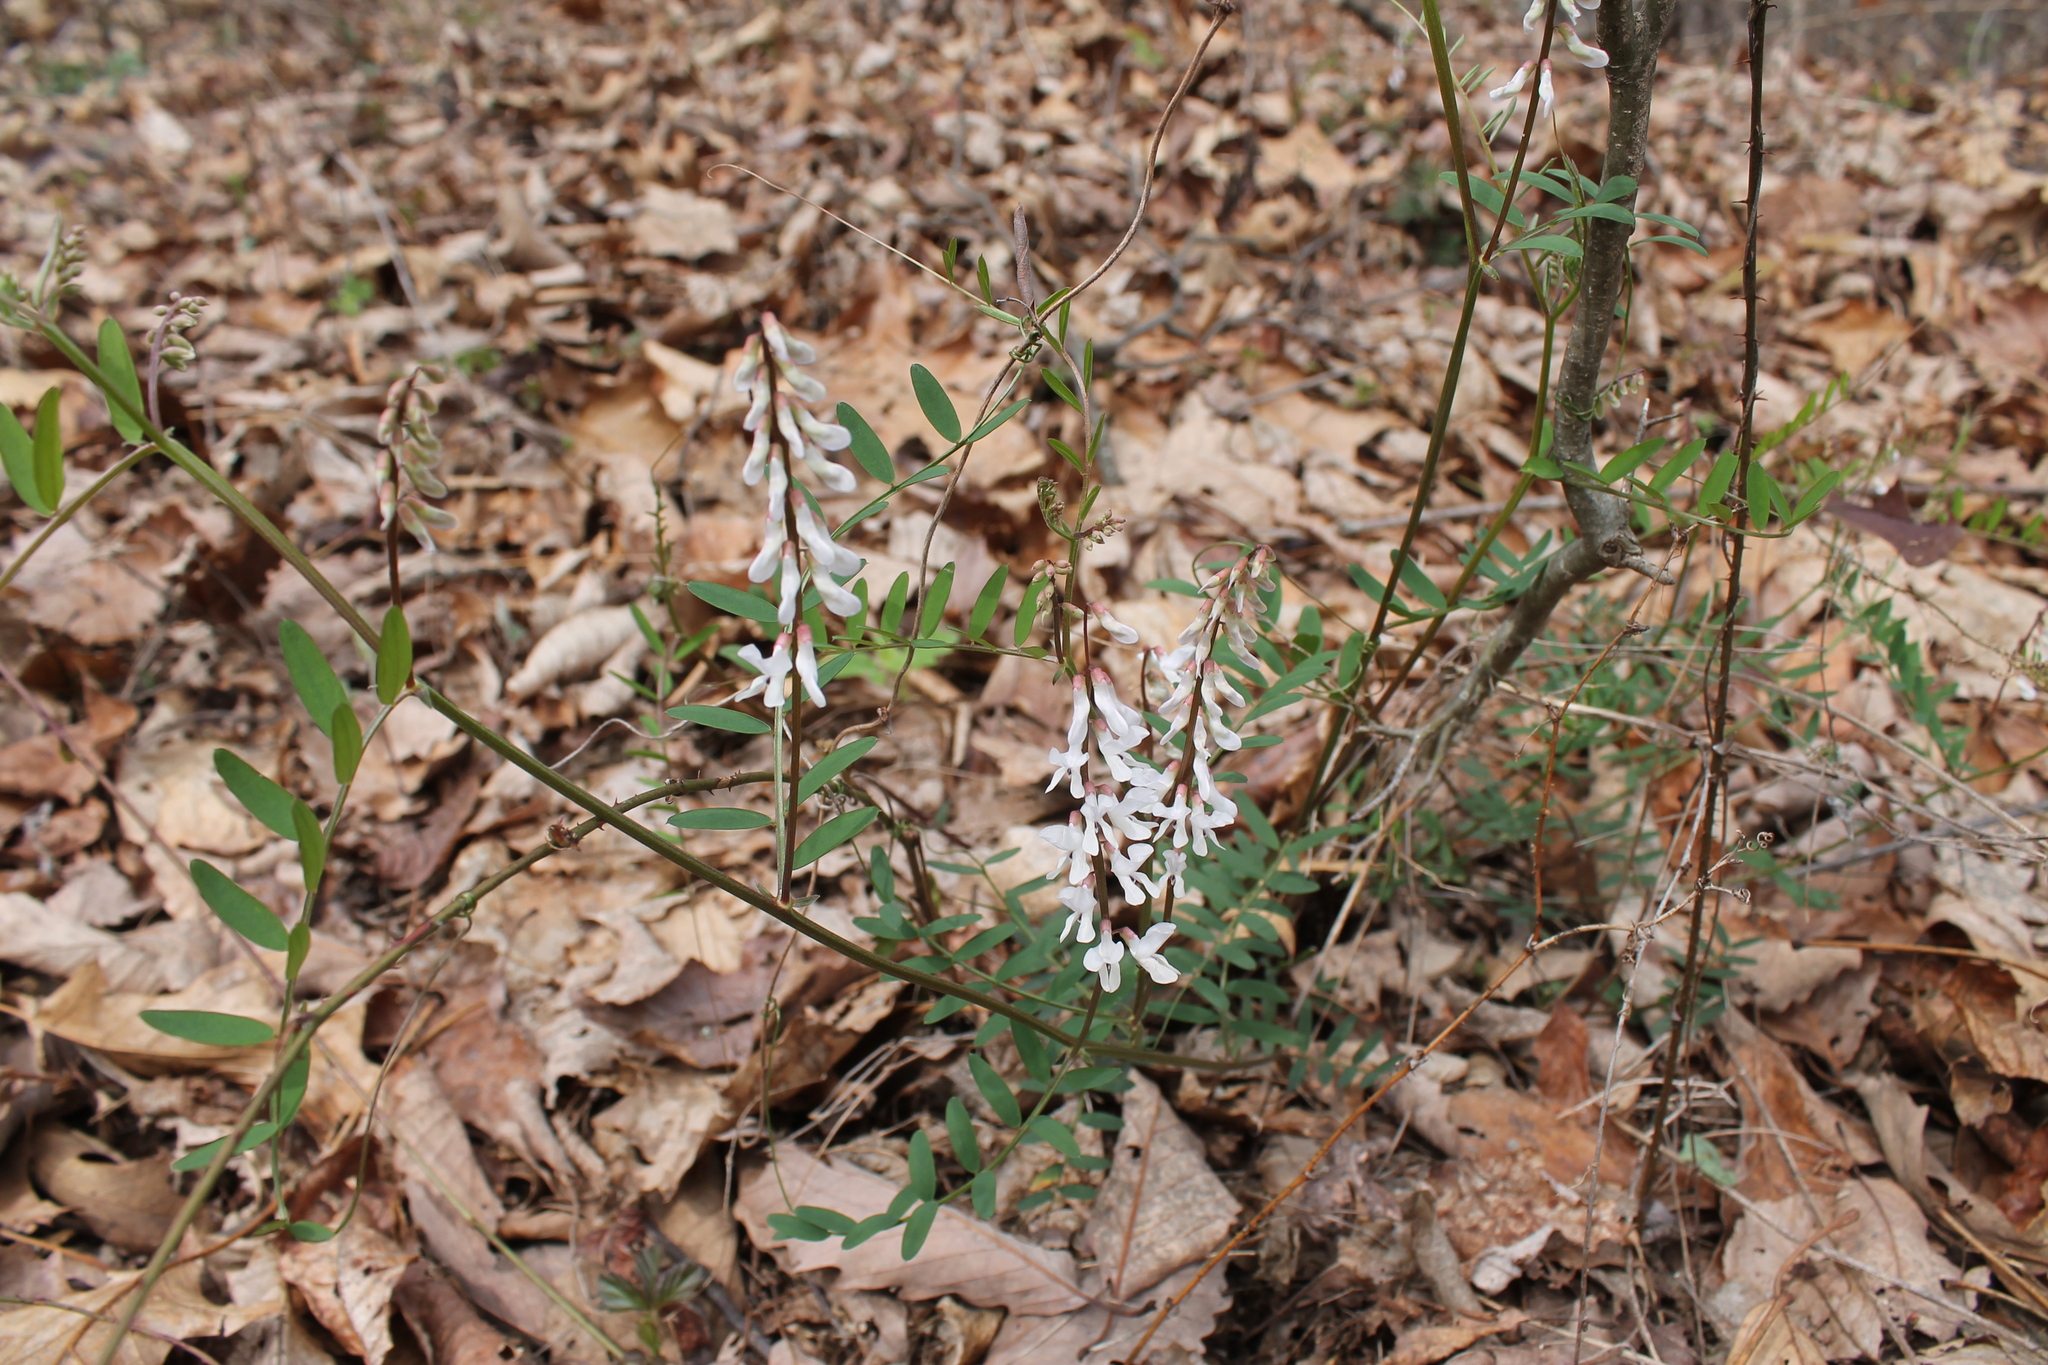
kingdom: Plantae
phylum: Tracheophyta
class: Magnoliopsida
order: Fabales
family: Fabaceae
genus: Vicia
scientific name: Vicia caroliniana
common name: Carolina vetch
